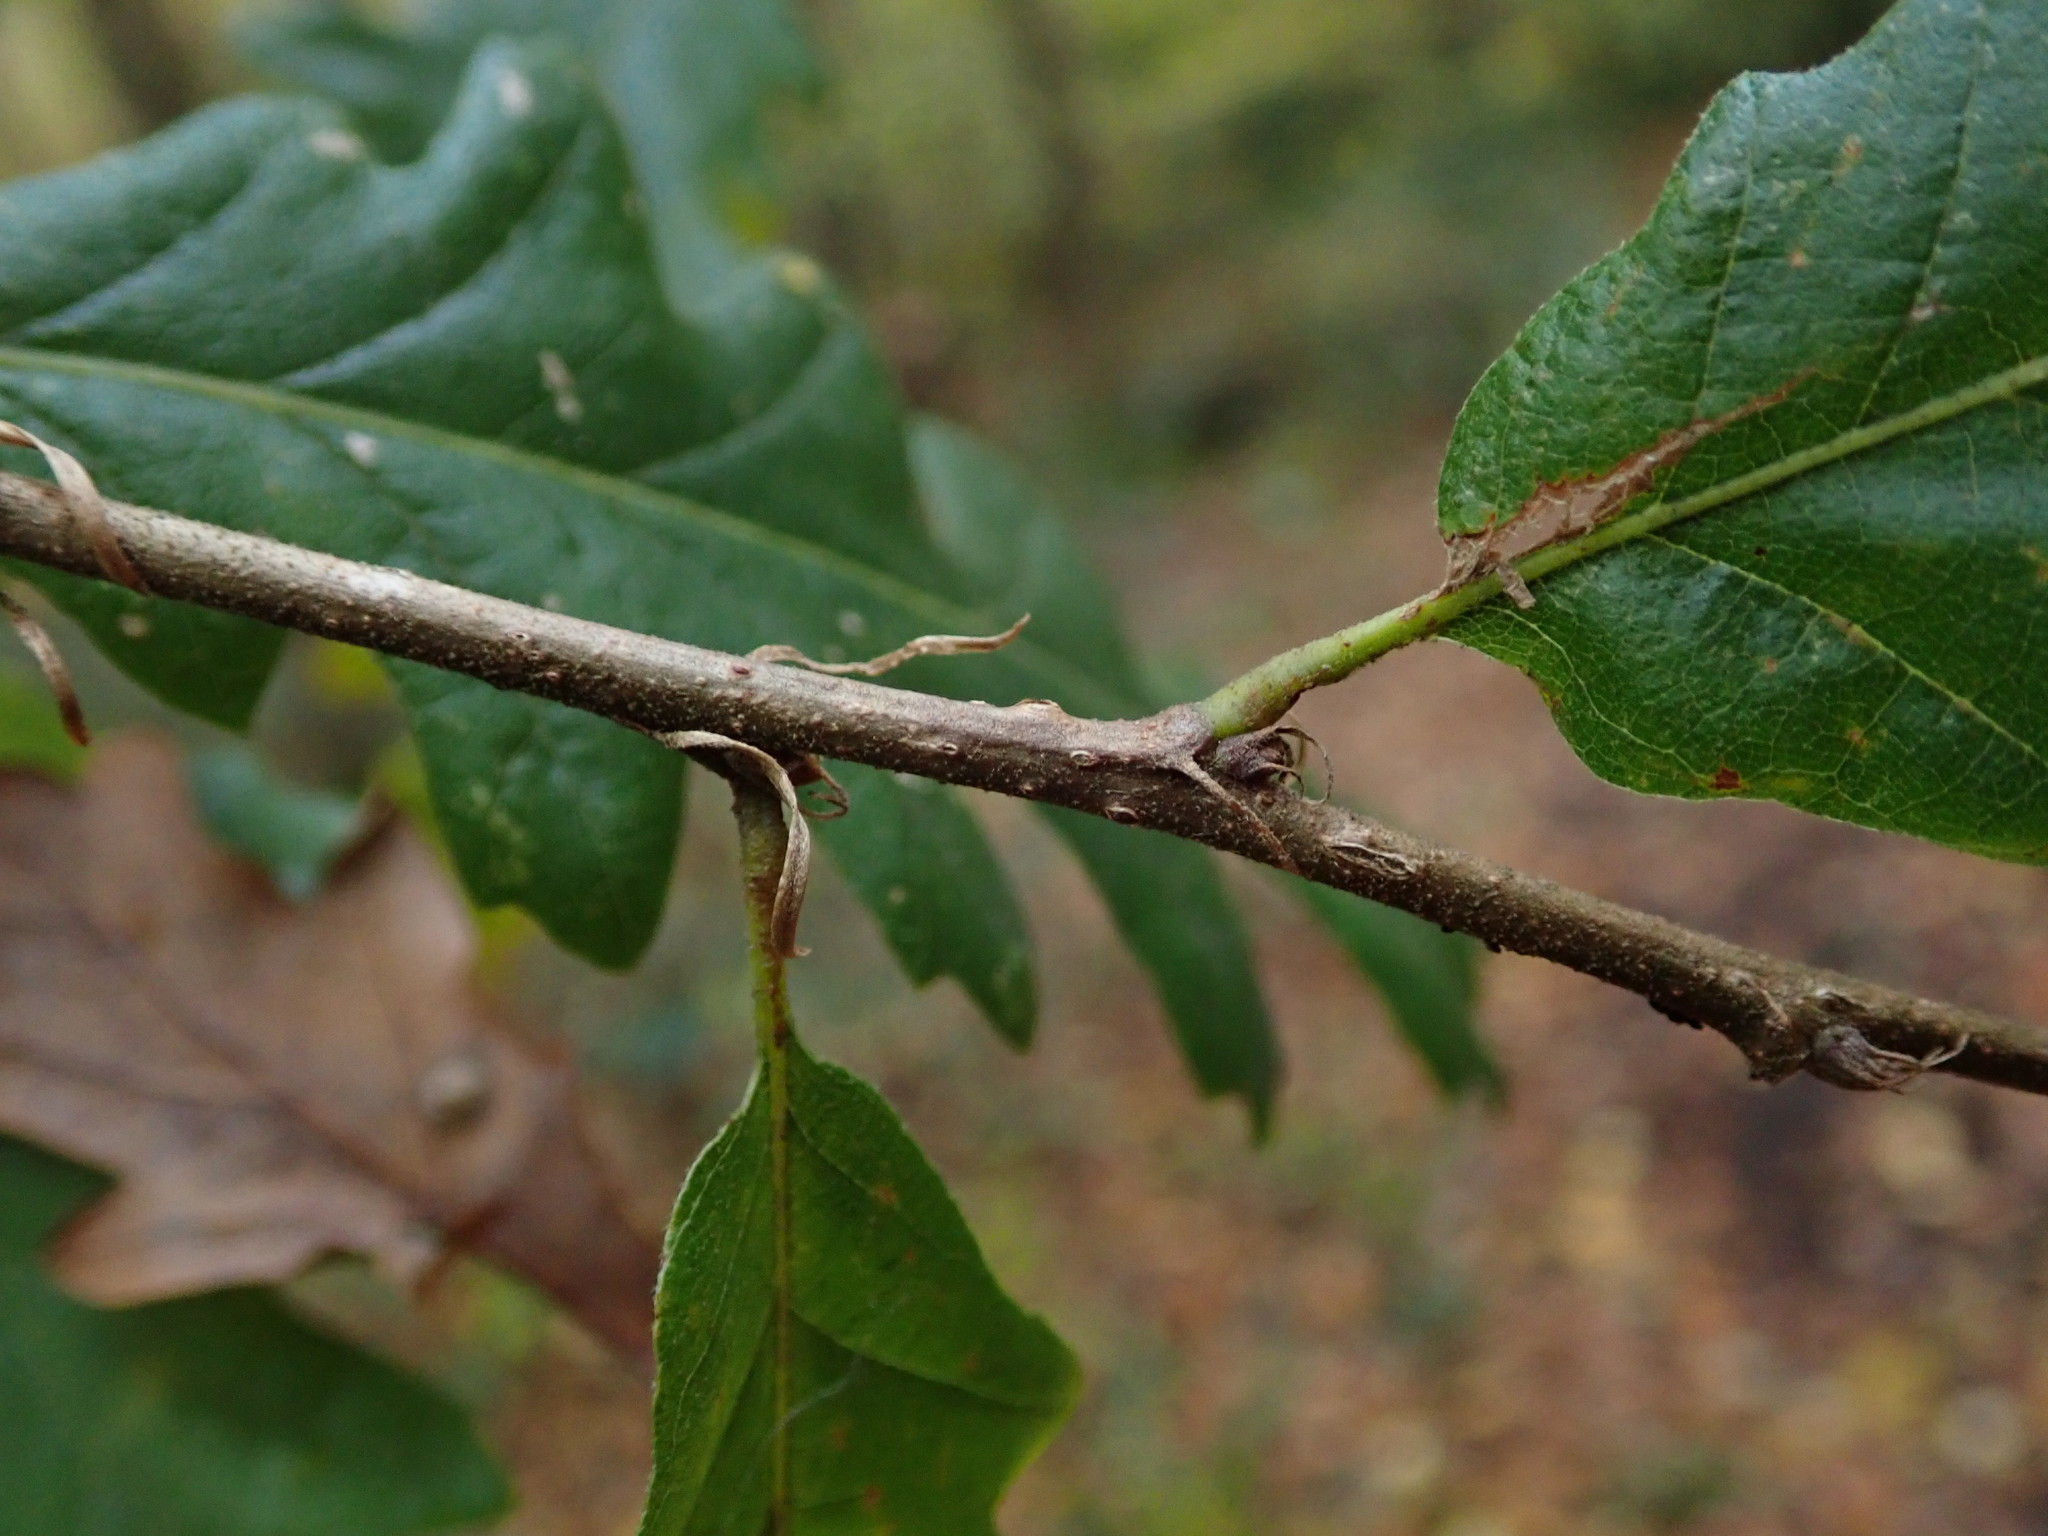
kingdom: Plantae
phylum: Tracheophyta
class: Magnoliopsida
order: Fagales
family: Fagaceae
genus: Quercus
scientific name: Quercus cerris
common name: Turkey oak
